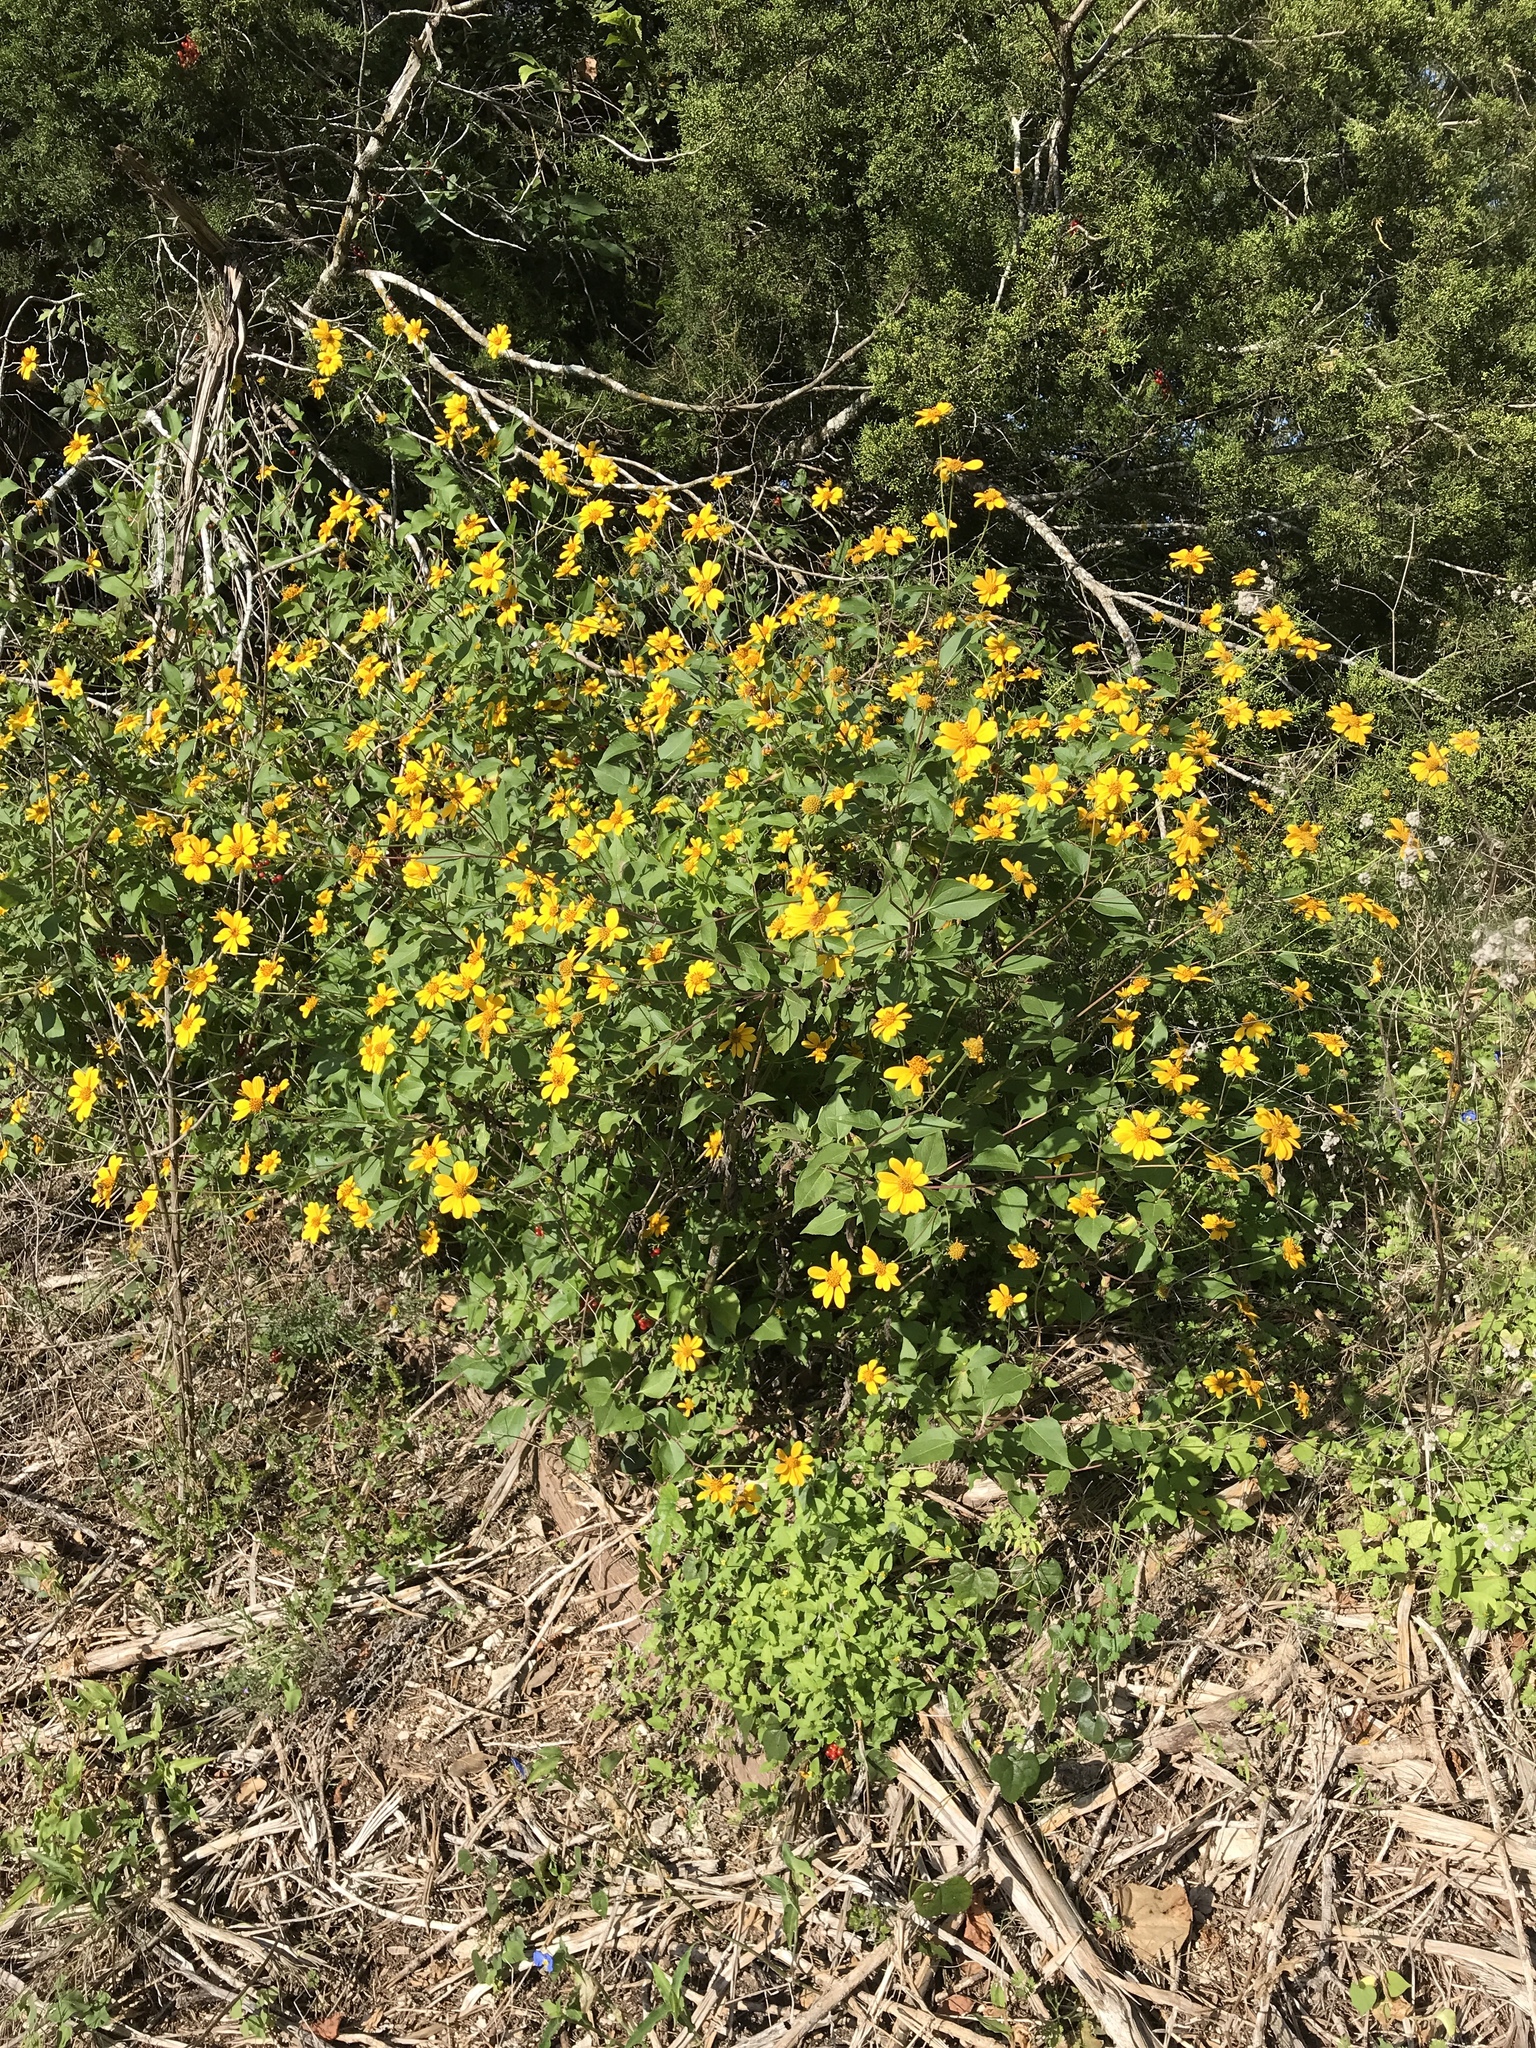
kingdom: Plantae
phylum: Tracheophyta
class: Magnoliopsida
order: Asterales
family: Asteraceae
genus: Viguiera
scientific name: Viguiera dentata
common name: Toothleaf
